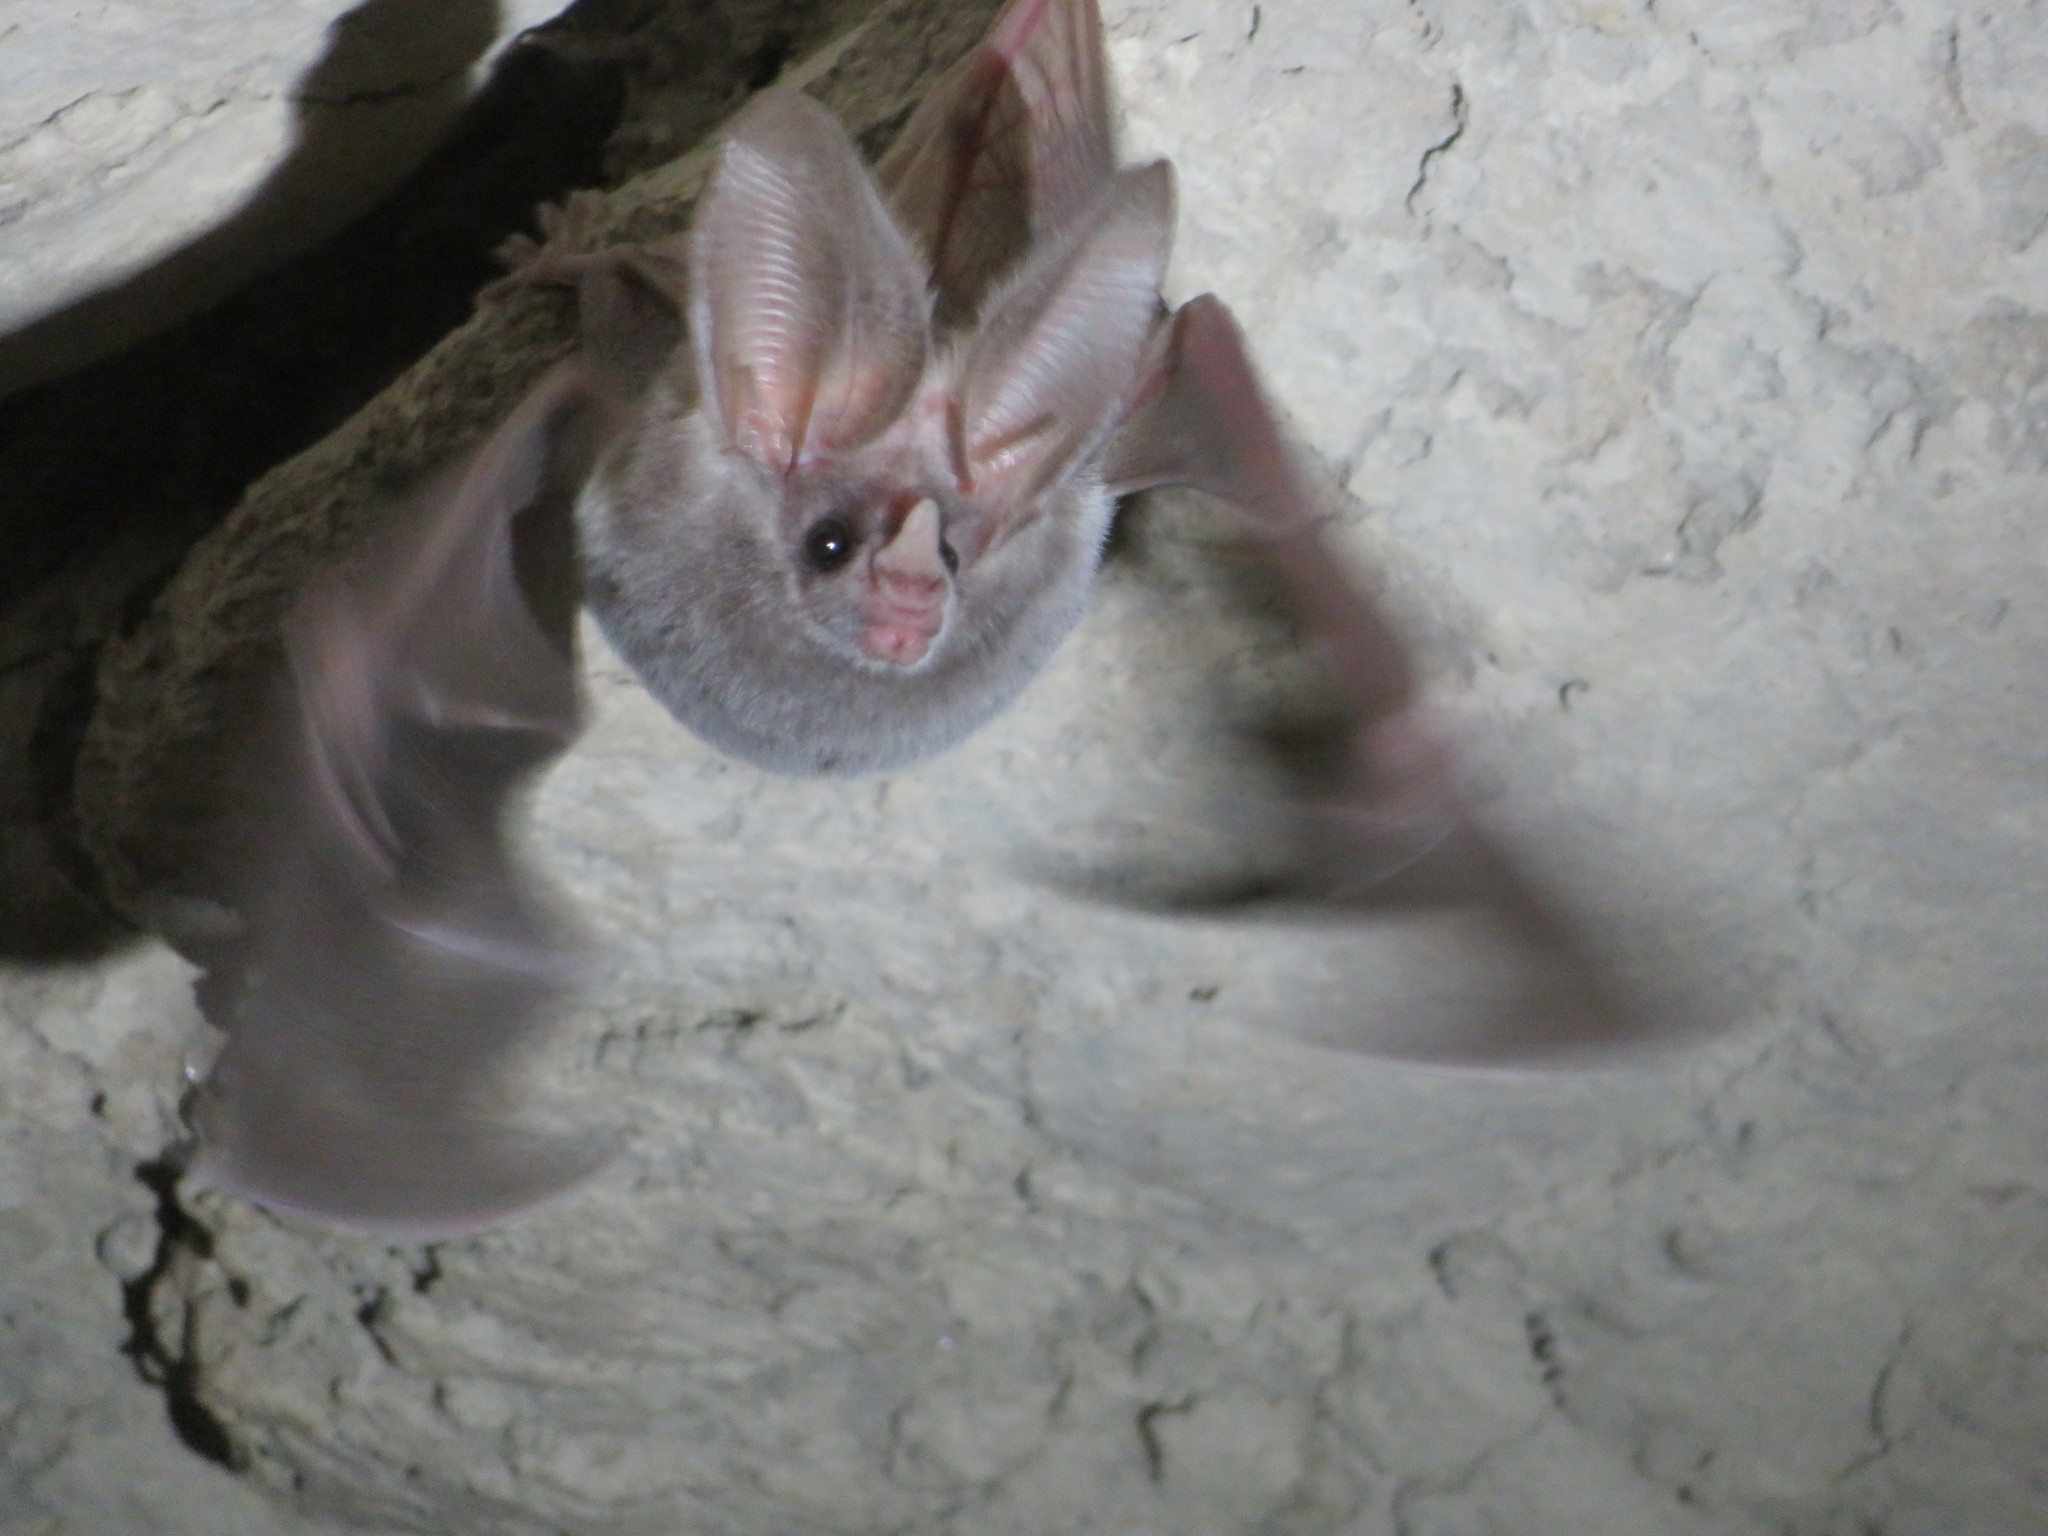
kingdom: Animalia
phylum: Chordata
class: Mammalia
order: Chiroptera
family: Phyllostomidae
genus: Macrotus
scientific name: Macrotus californicus
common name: Californian leaf-nosed bat
